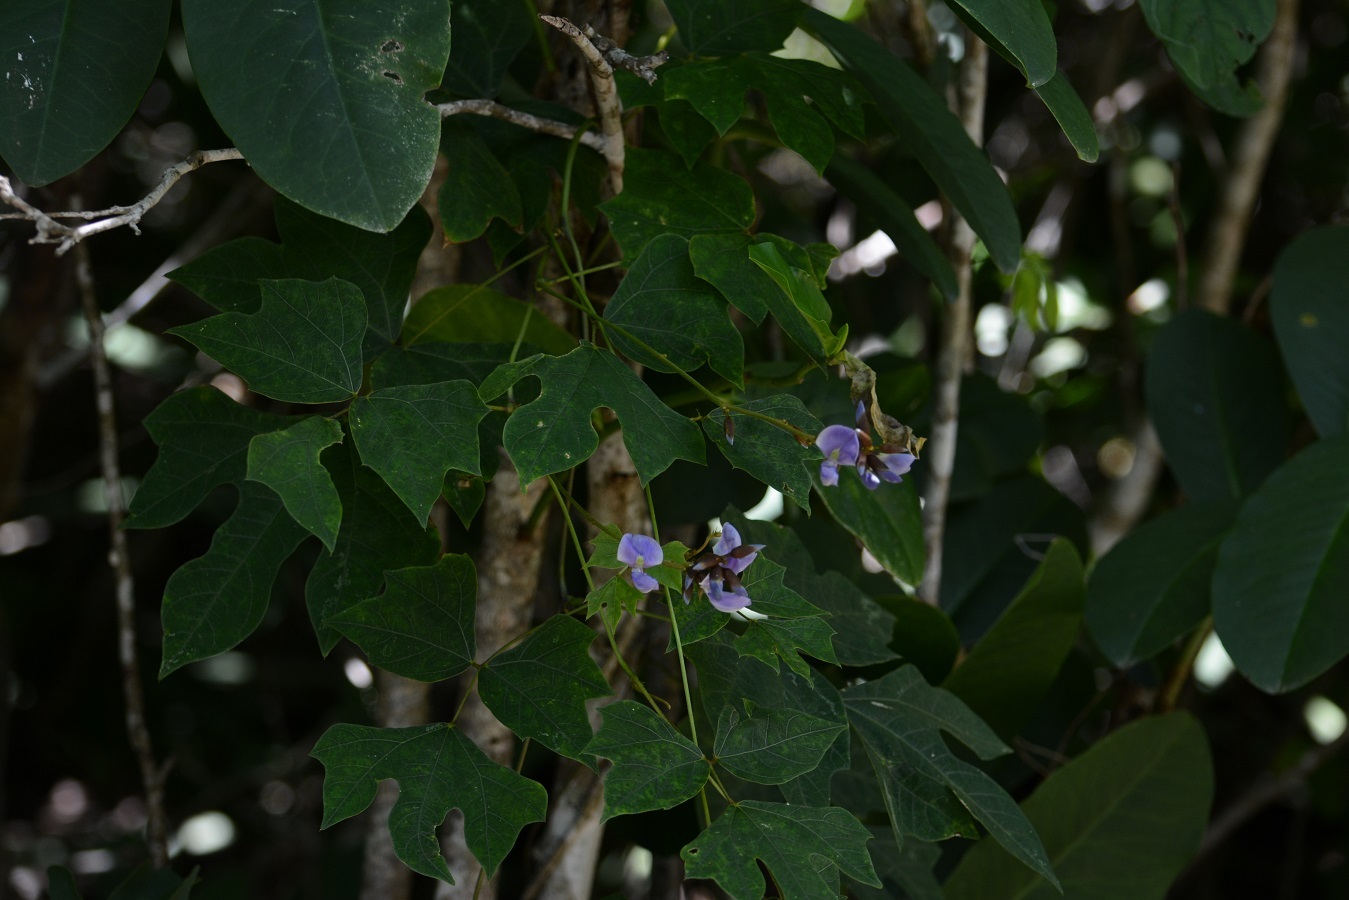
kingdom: Plantae
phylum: Tracheophyta
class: Magnoliopsida
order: Fabales
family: Fabaceae
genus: Pachyrhizus
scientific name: Pachyrhizus erosus
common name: Yam bean
